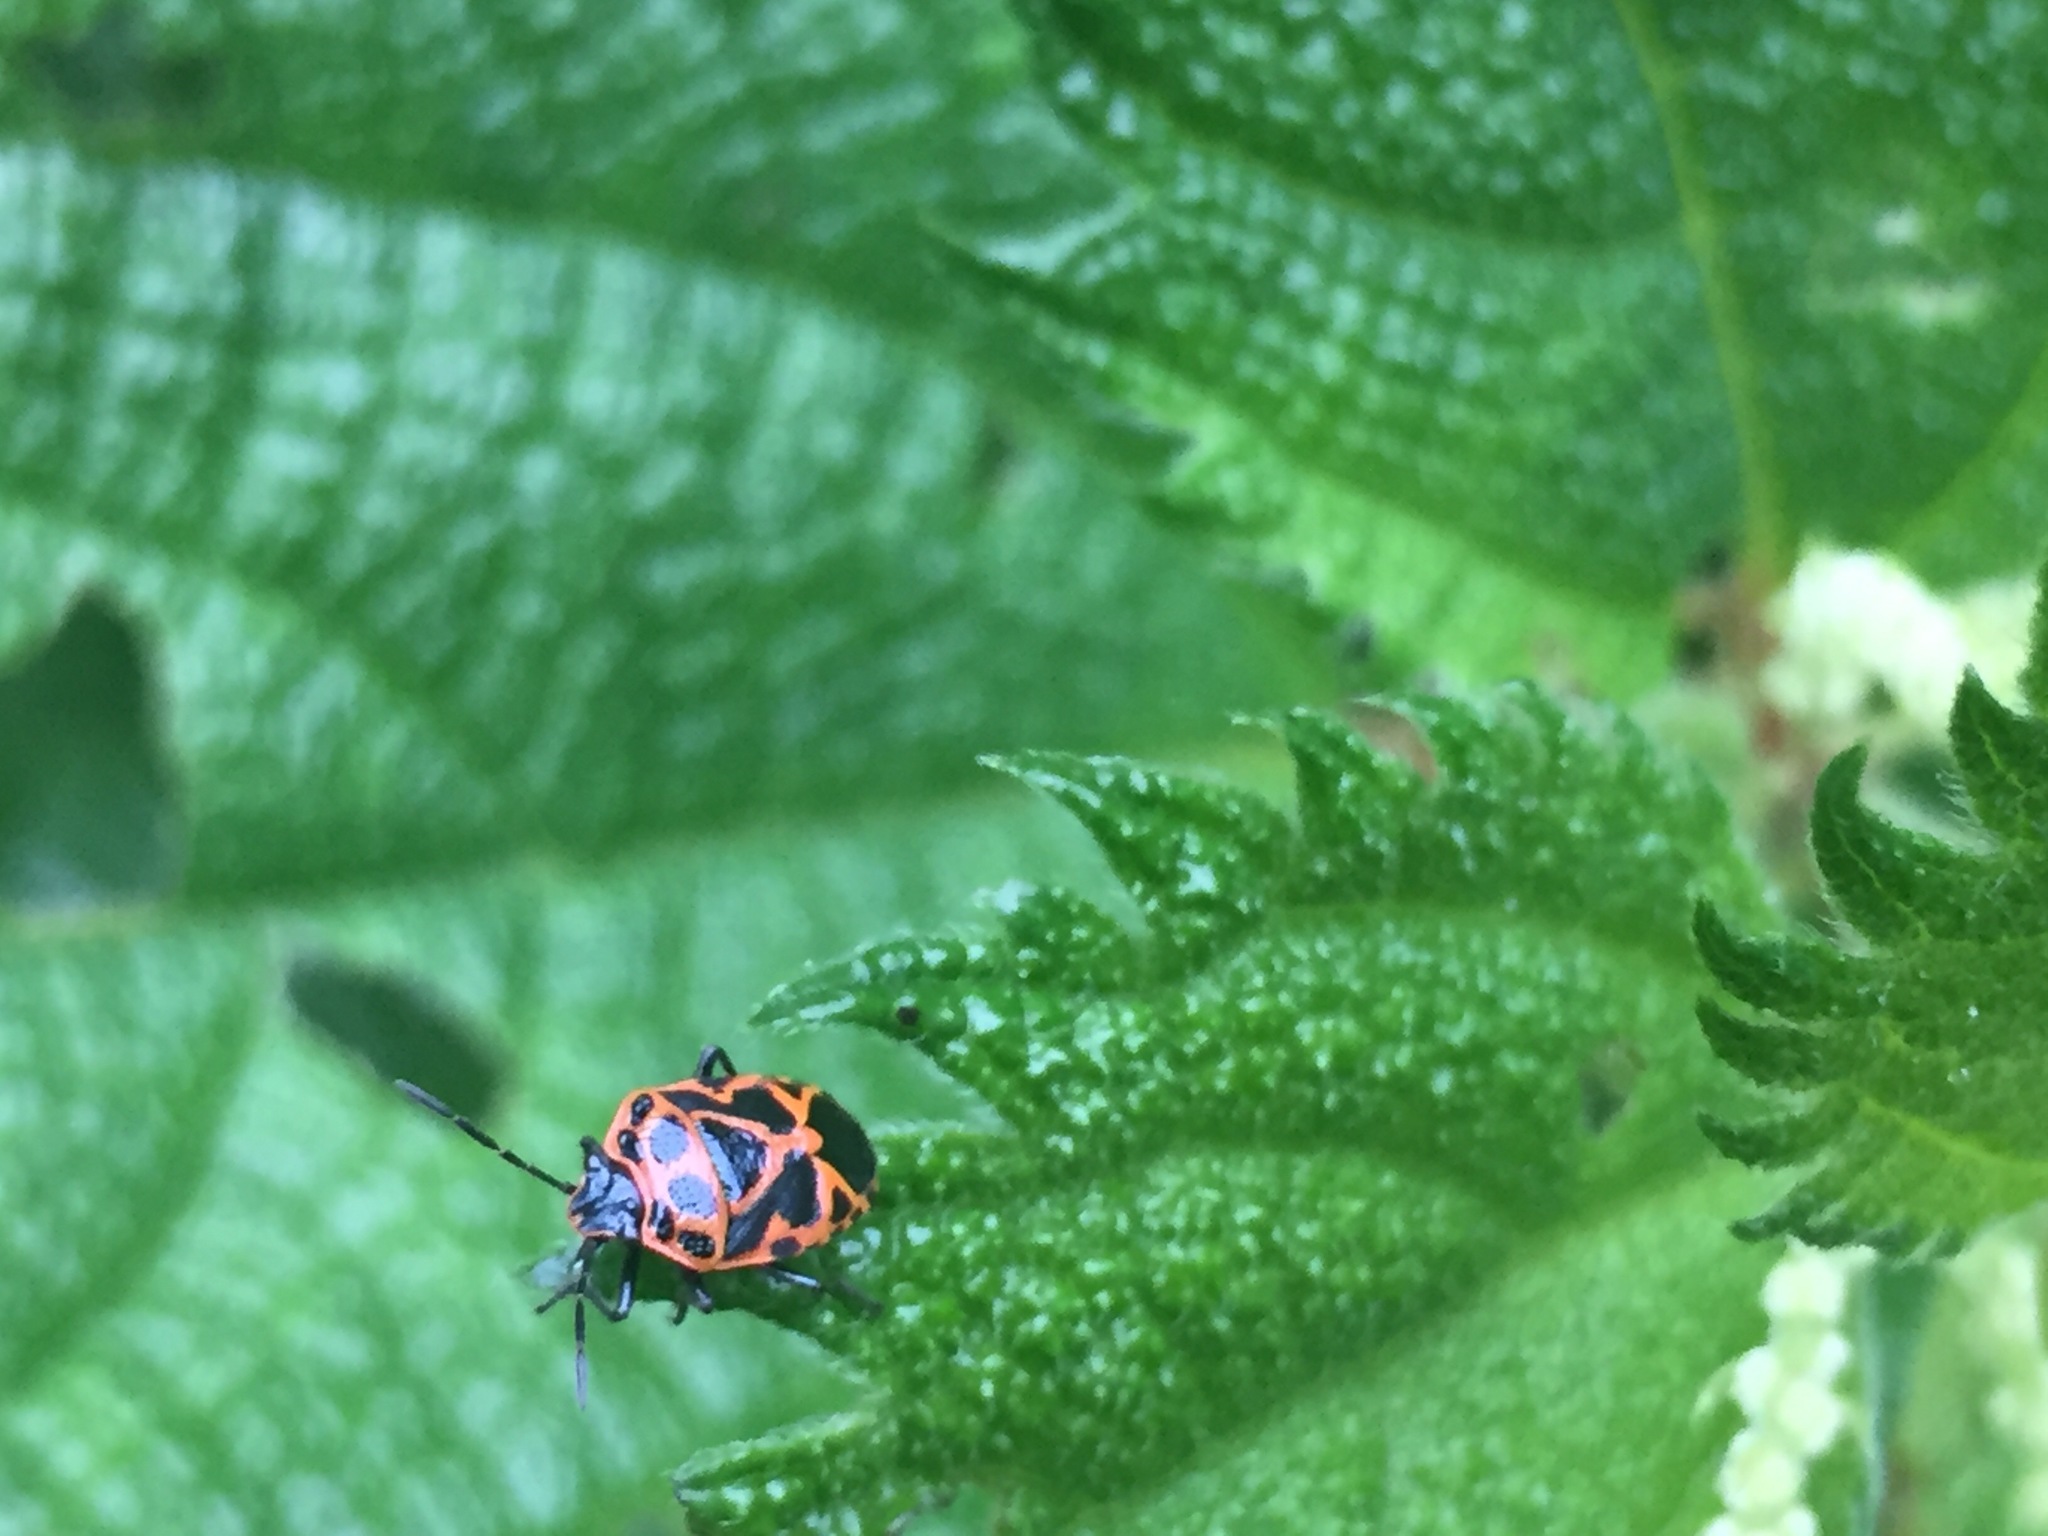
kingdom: Animalia
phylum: Arthropoda
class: Insecta
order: Hemiptera
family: Pentatomidae
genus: Eurydema
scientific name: Eurydema dominulus
